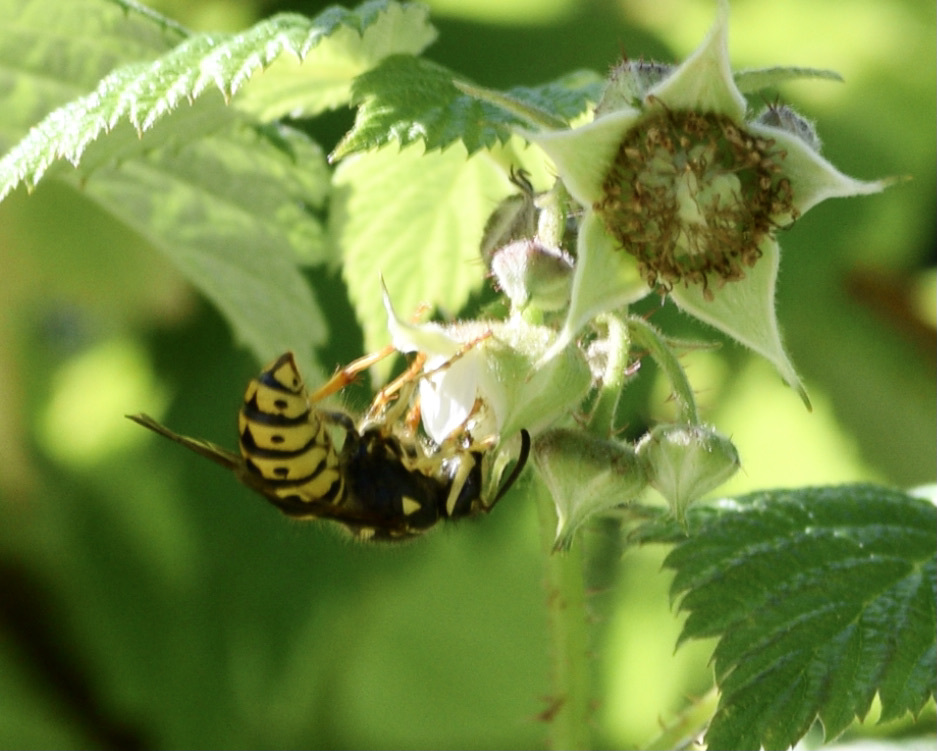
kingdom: Animalia
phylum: Arthropoda
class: Insecta
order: Hymenoptera
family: Vespidae
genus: Dolichovespula
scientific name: Dolichovespula arenaria
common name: Aerial yellowjacket
